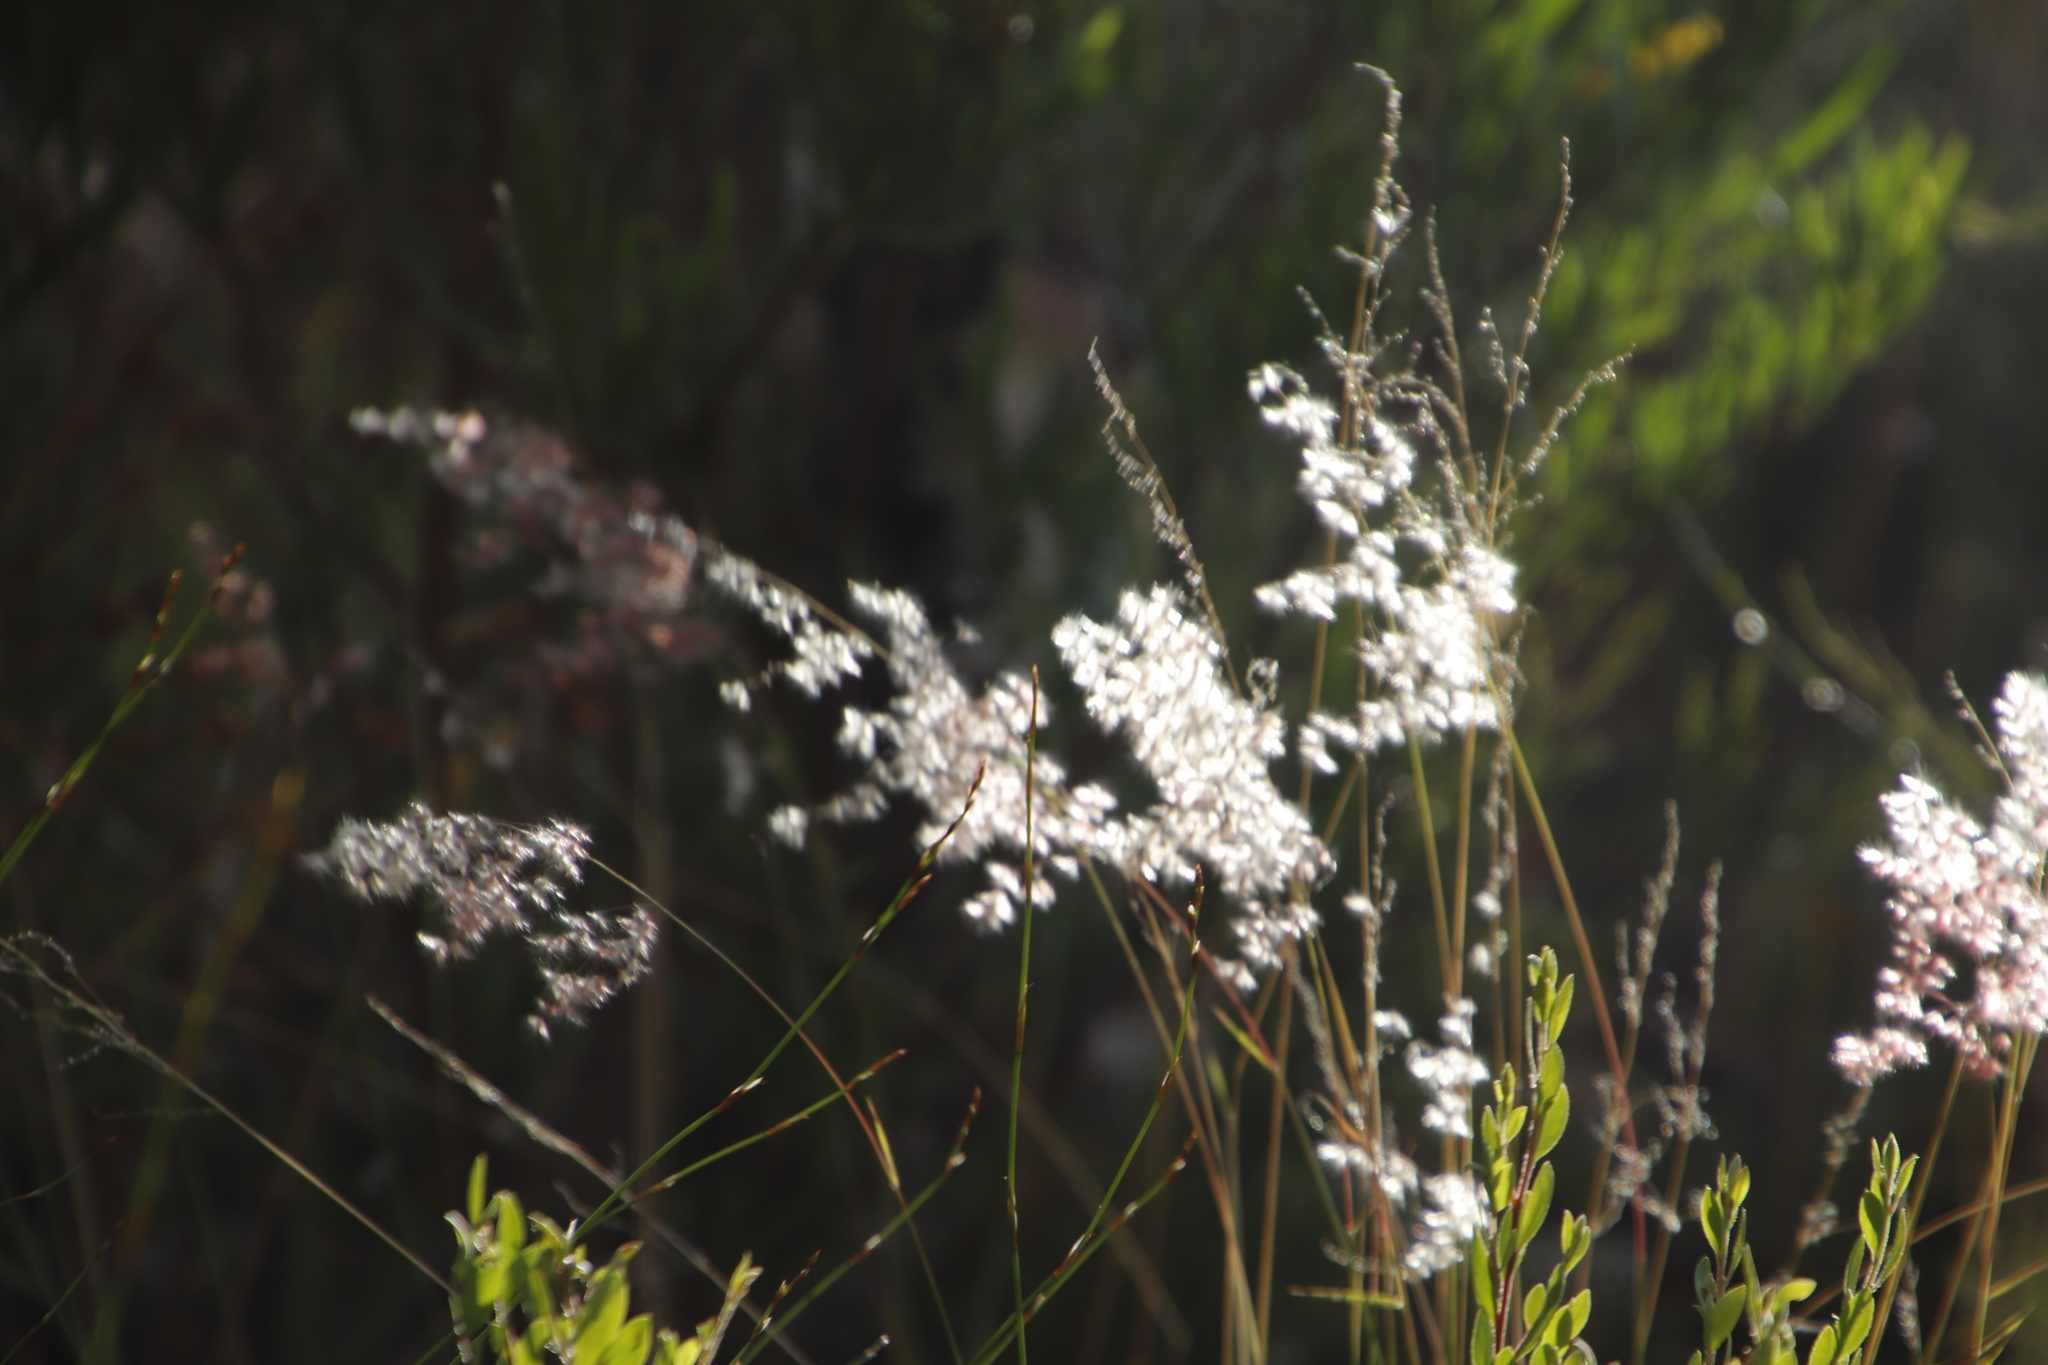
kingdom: Plantae
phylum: Tracheophyta
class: Liliopsida
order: Poales
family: Poaceae
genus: Melinis
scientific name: Melinis repens
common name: Rose natal grass
